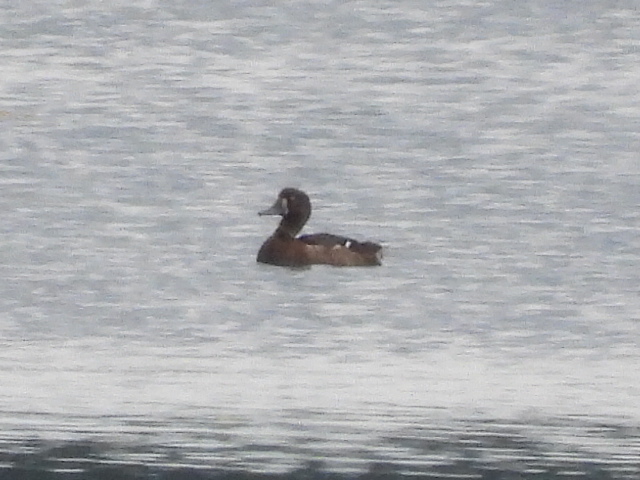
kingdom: Animalia
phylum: Chordata
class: Aves
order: Anseriformes
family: Anatidae
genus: Aythya
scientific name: Aythya marila
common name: Greater scaup
